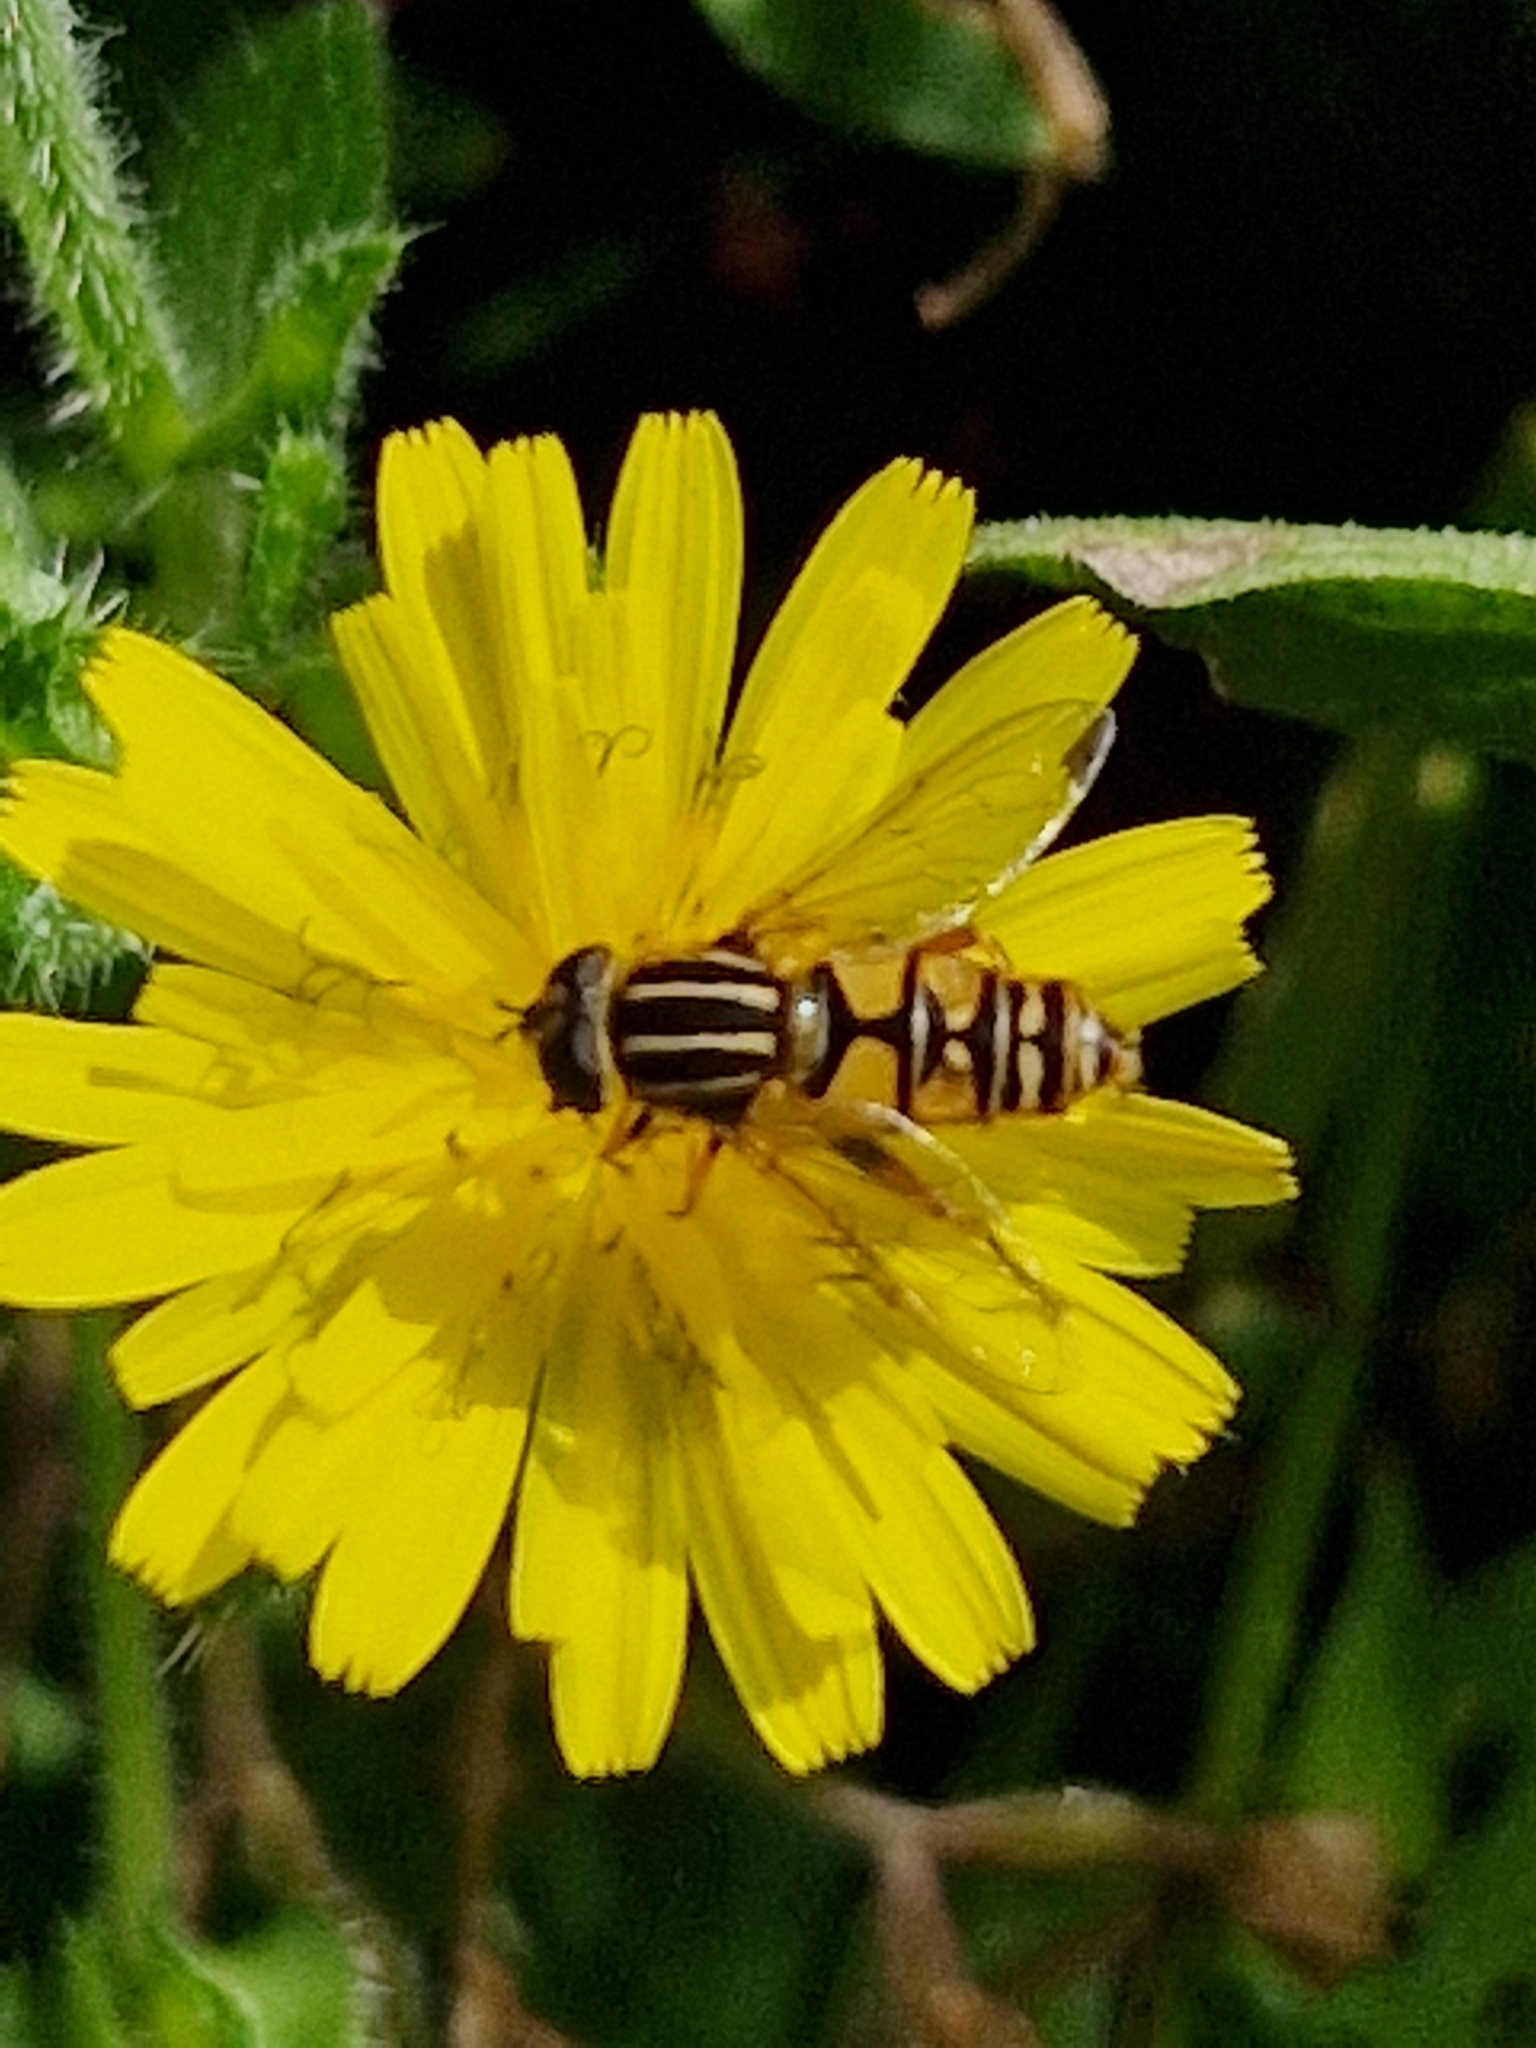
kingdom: Animalia
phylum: Arthropoda
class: Insecta
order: Diptera
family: Syrphidae
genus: Helophilus
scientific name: Helophilus pendulus
